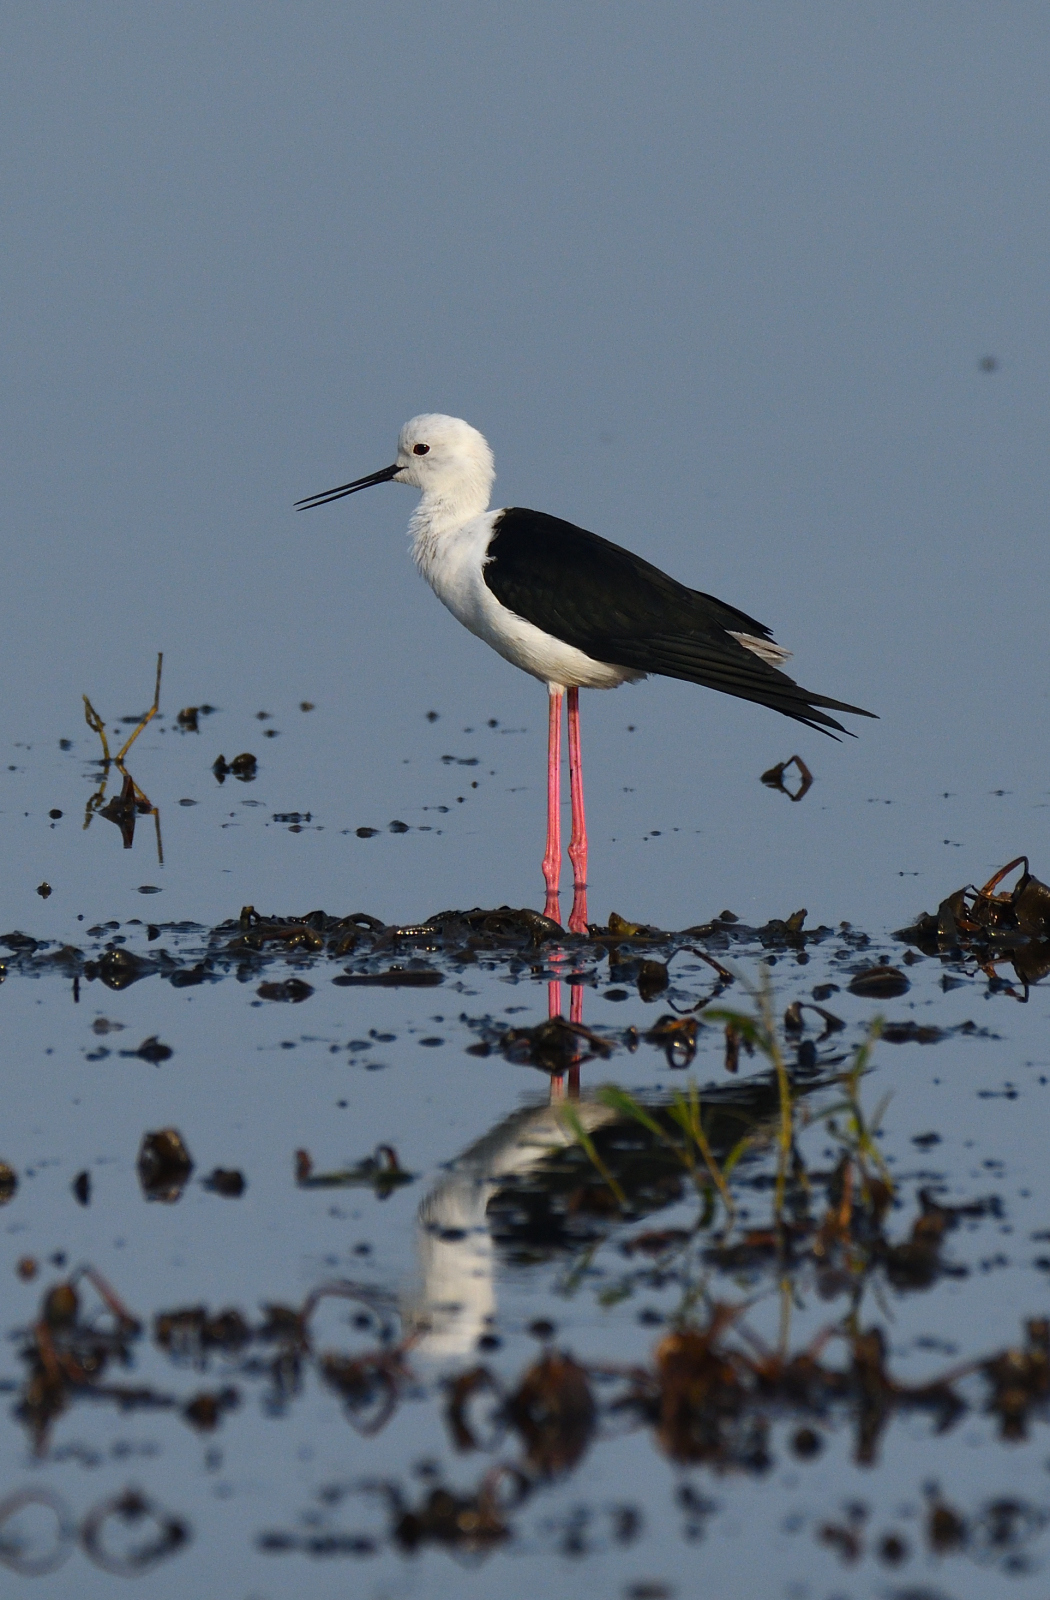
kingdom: Animalia
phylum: Chordata
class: Aves
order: Charadriiformes
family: Recurvirostridae
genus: Himantopus
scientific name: Himantopus himantopus
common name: Black-winged stilt
